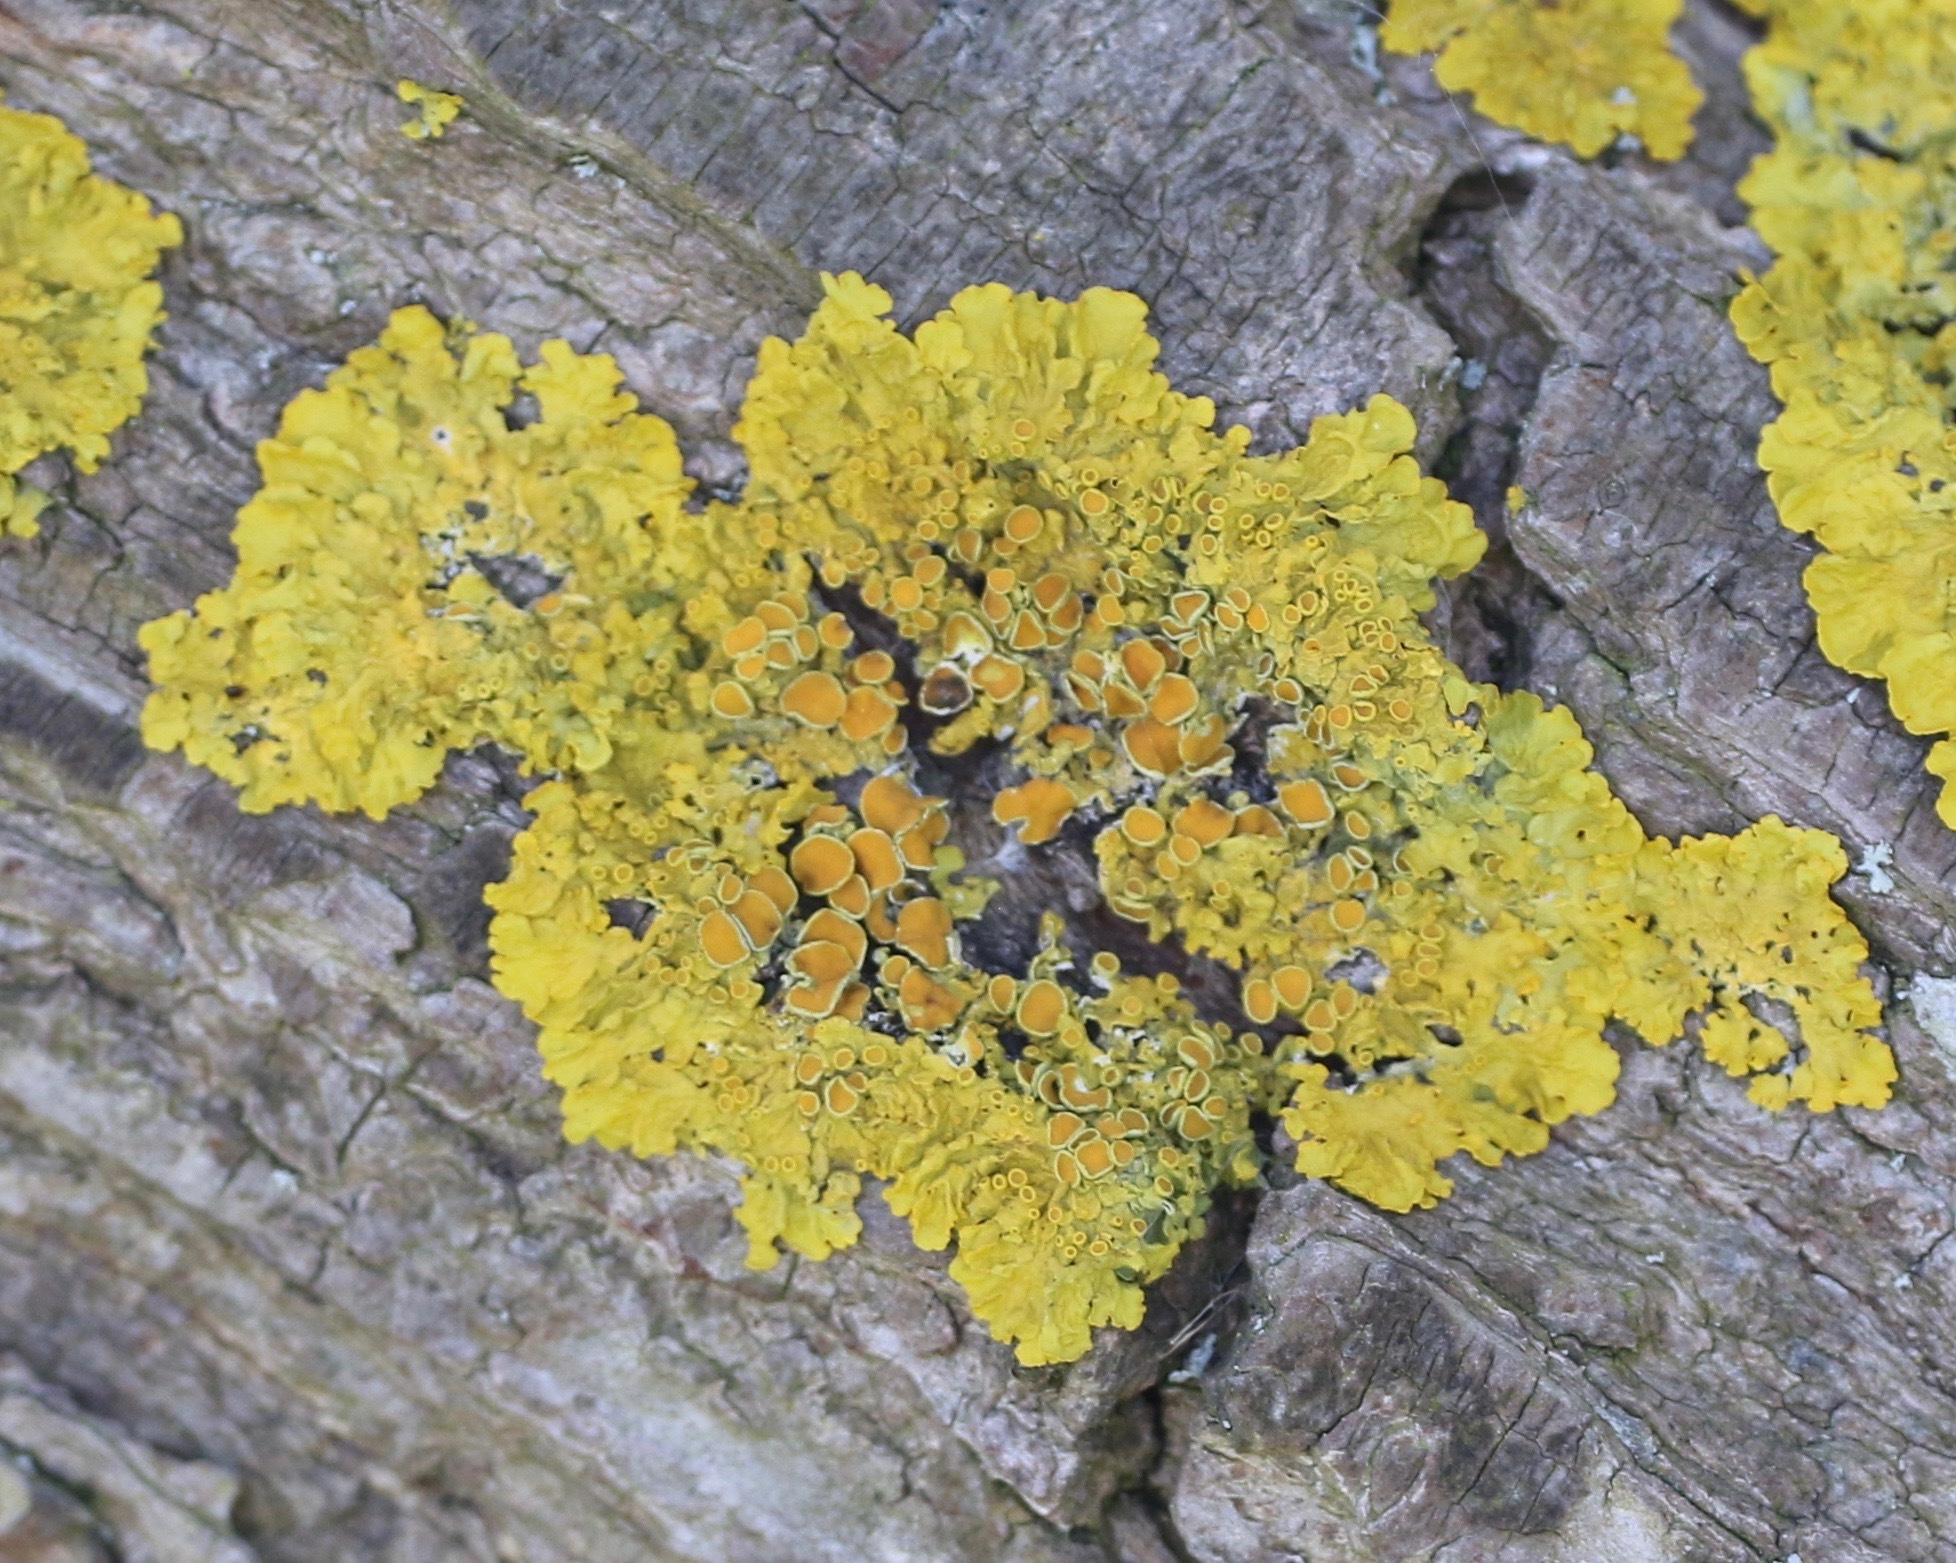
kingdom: Fungi
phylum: Ascomycota
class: Lecanoromycetes
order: Teloschistales
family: Teloschistaceae
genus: Xanthoria
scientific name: Xanthoria parietina
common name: Common orange lichen
